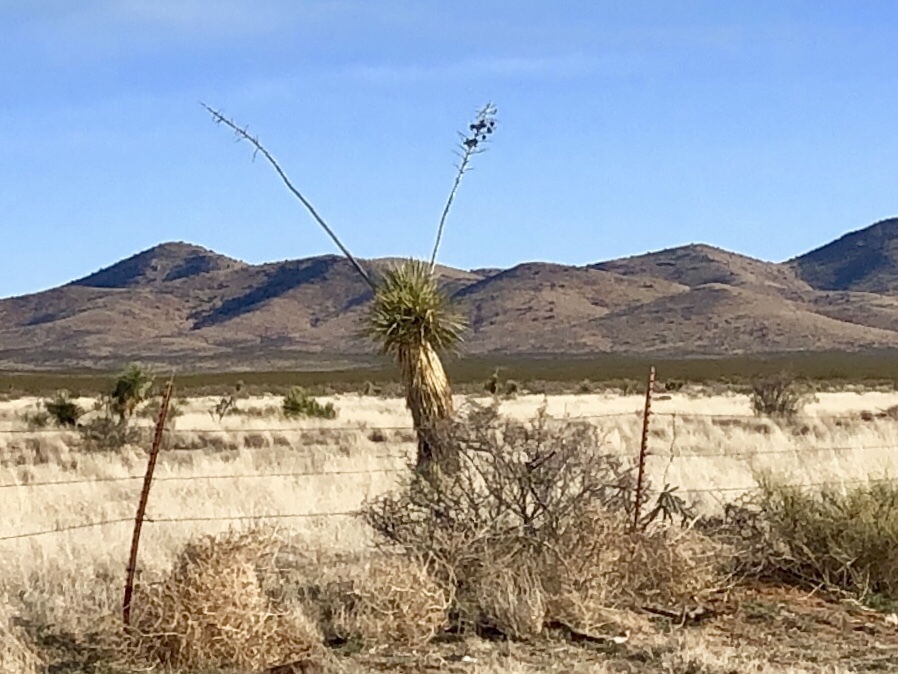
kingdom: Plantae
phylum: Tracheophyta
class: Liliopsida
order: Asparagales
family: Asparagaceae
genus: Yucca
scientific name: Yucca elata
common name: Palmella
